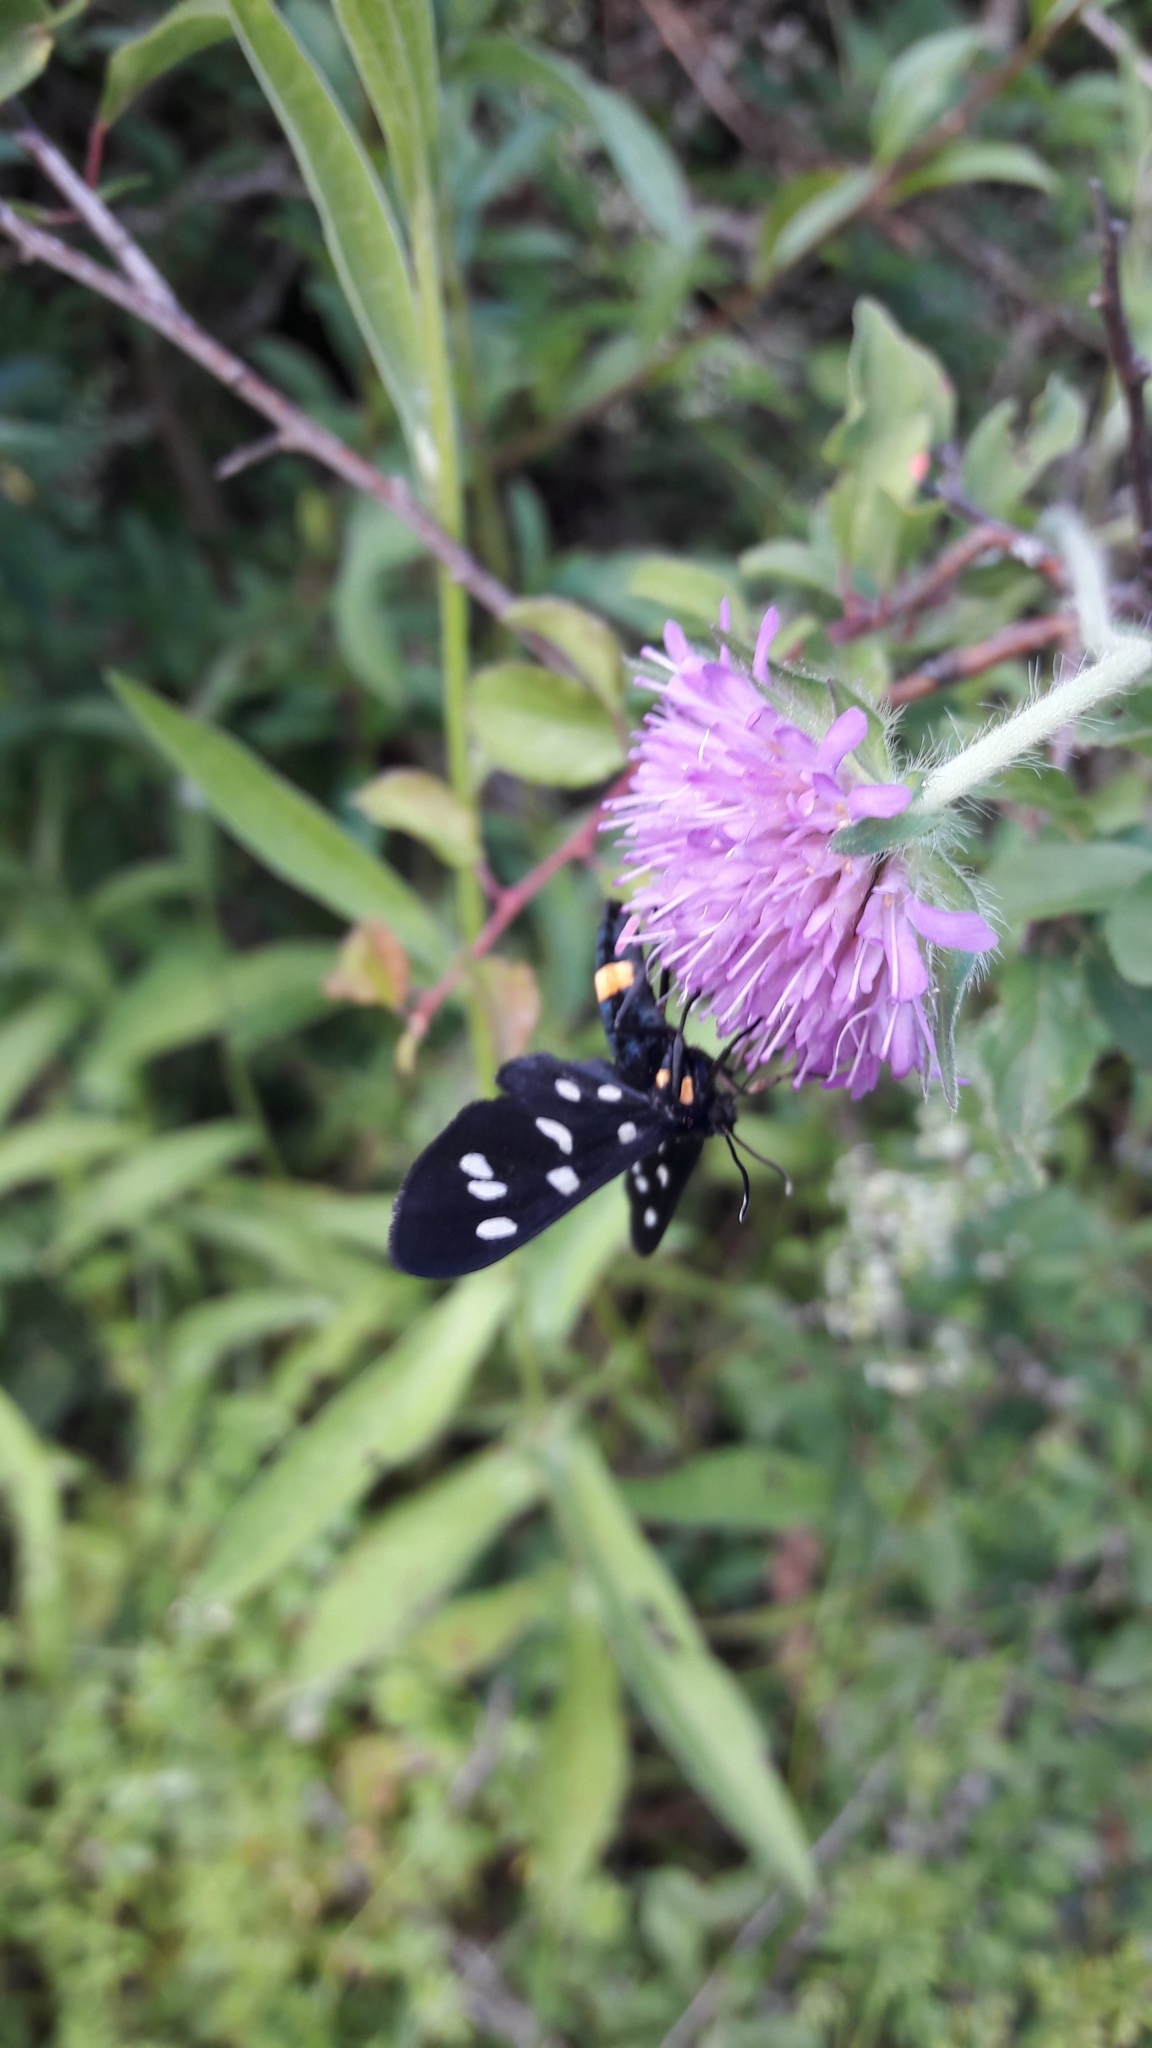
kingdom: Animalia
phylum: Arthropoda
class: Insecta
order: Lepidoptera
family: Erebidae
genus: Amata
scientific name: Amata phegea
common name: Nine-spotted
